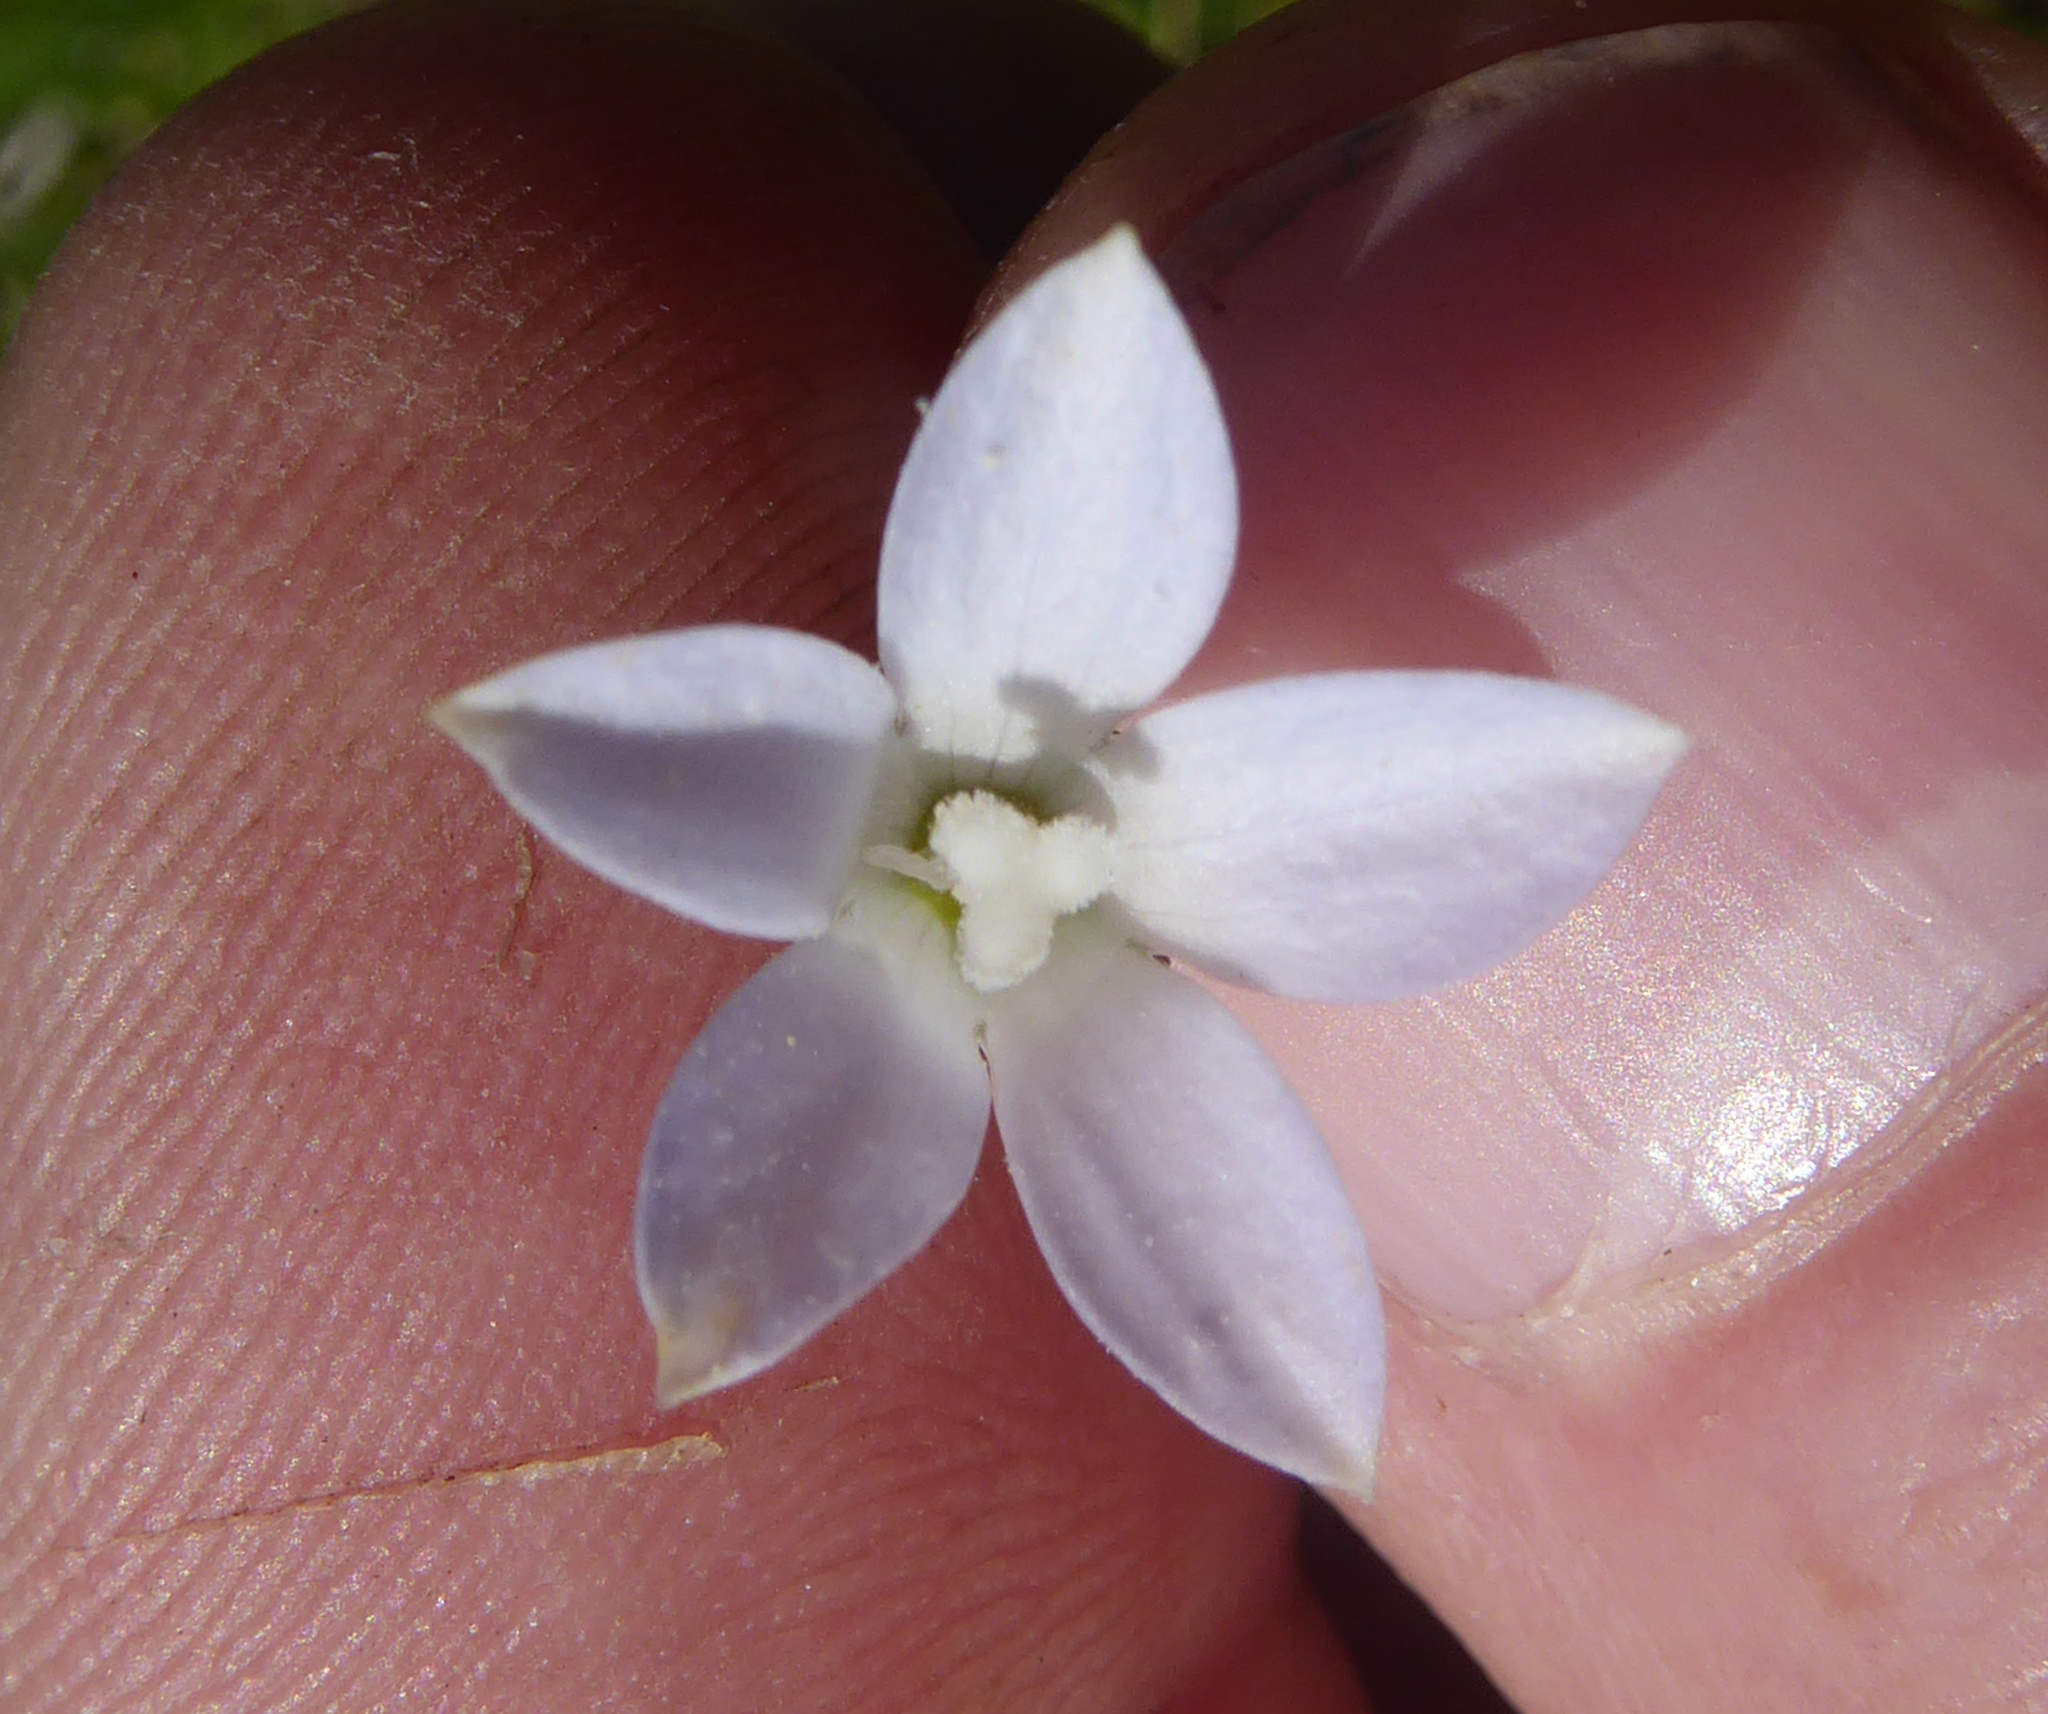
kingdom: Plantae
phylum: Tracheophyta
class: Magnoliopsida
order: Asterales
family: Campanulaceae
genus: Wahlenbergia
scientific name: Wahlenbergia ramosa
